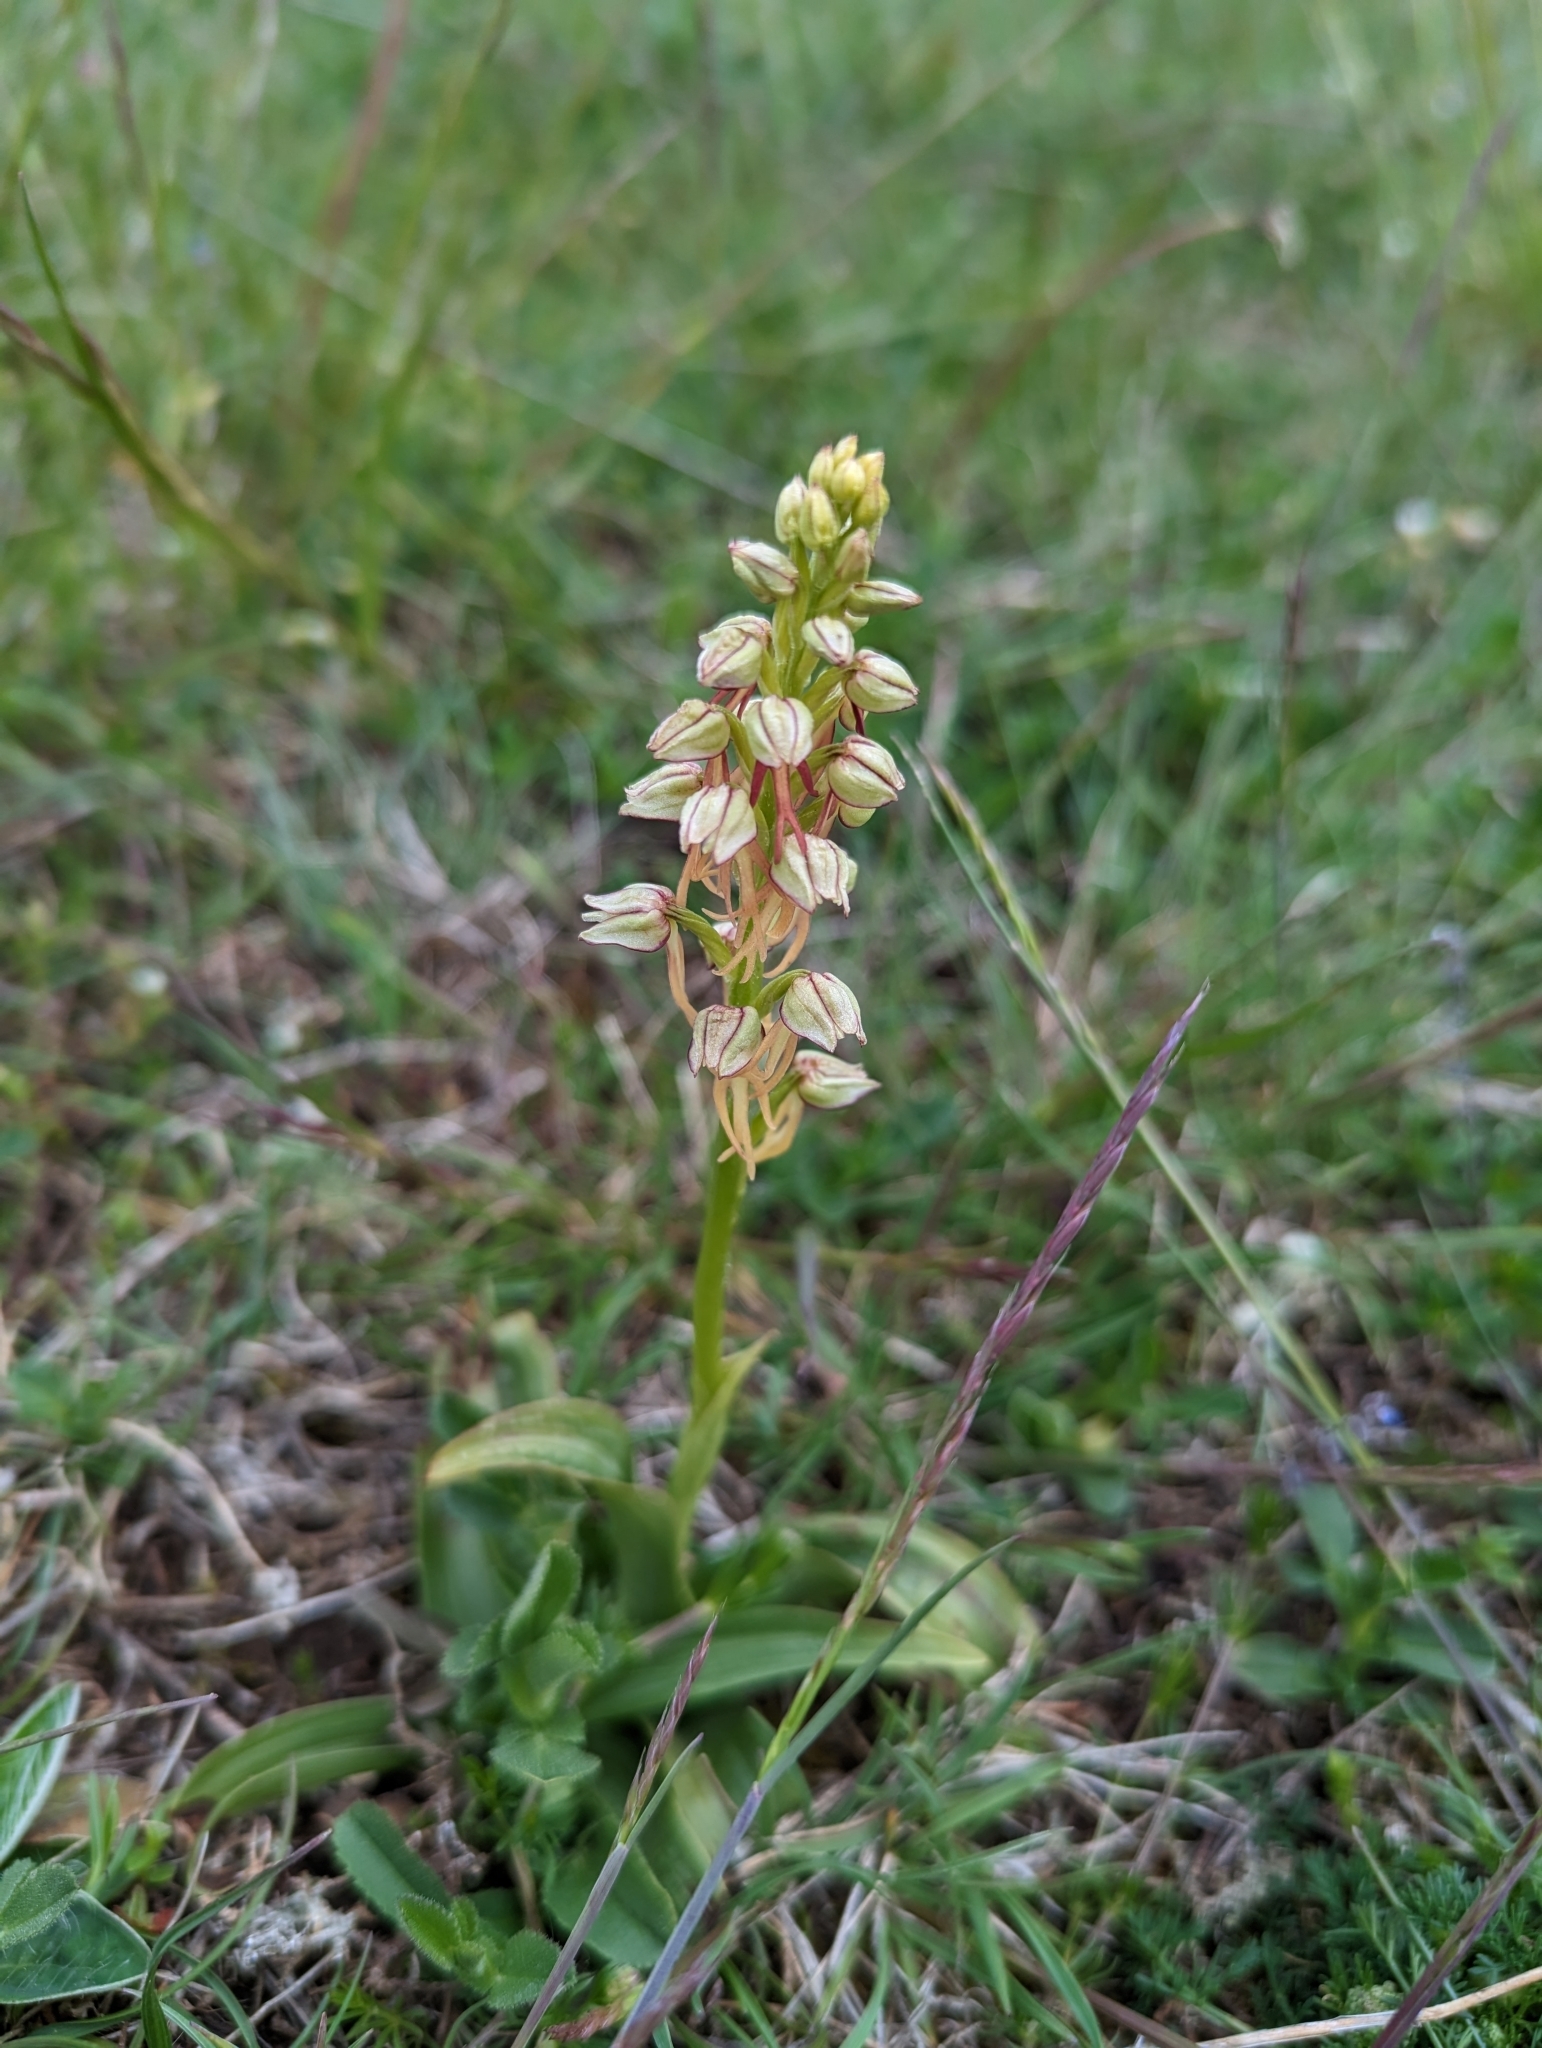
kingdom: Plantae
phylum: Tracheophyta
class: Liliopsida
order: Asparagales
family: Orchidaceae
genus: Orchis
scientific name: Orchis anthropophora
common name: Man orchid
